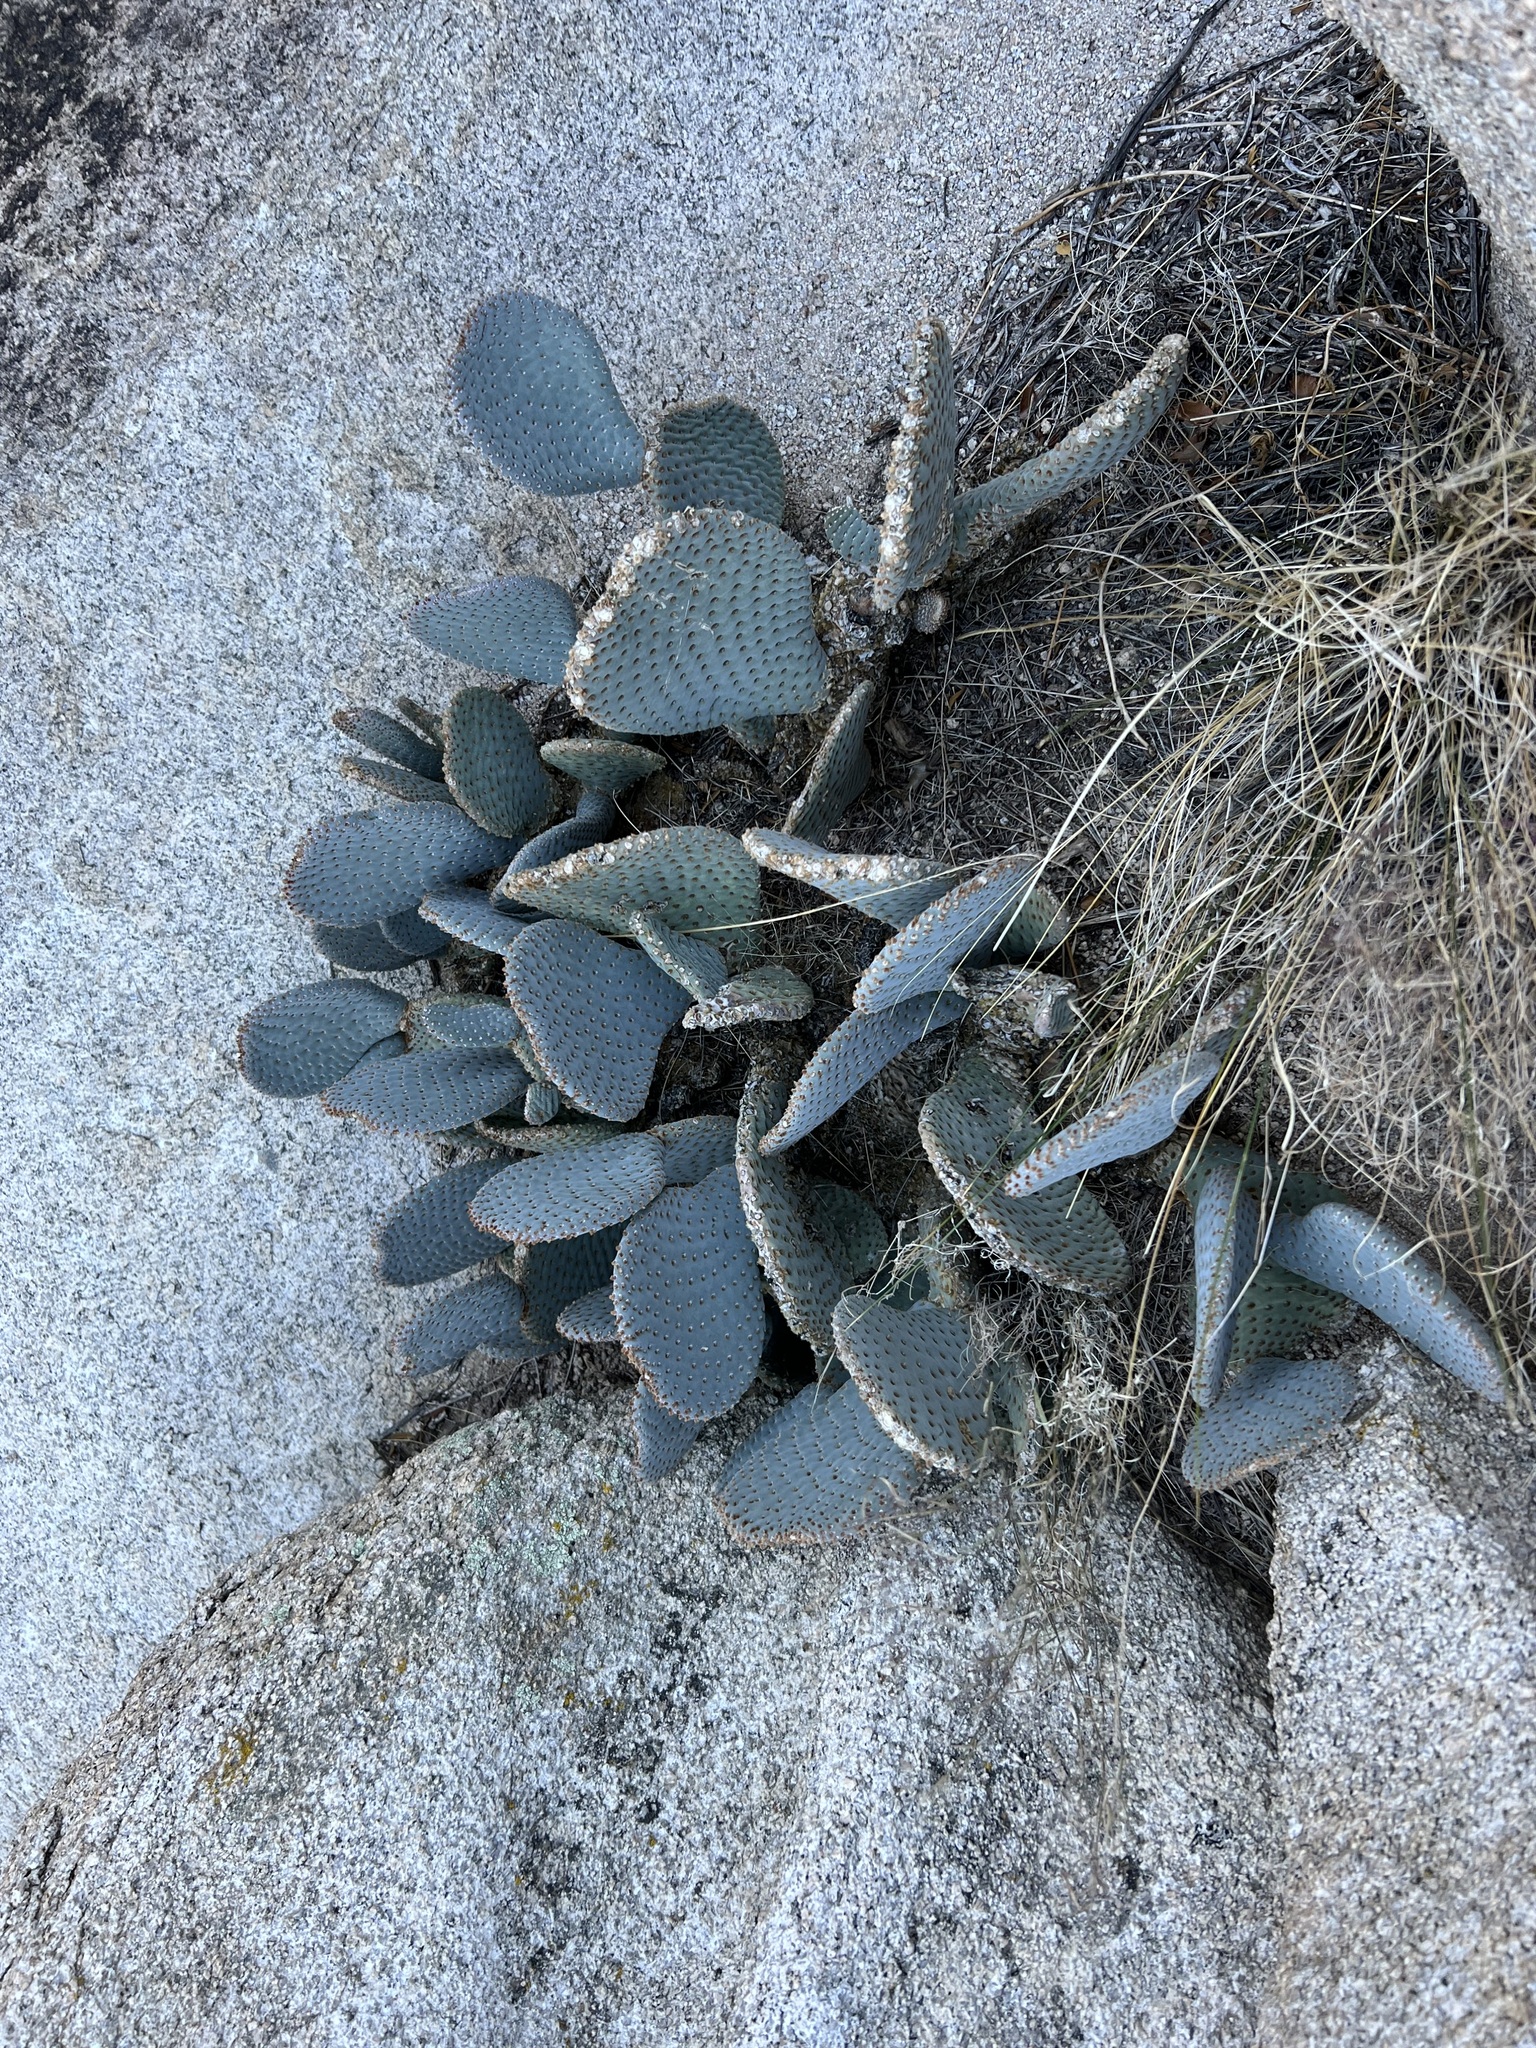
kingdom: Plantae
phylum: Tracheophyta
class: Magnoliopsida
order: Caryophyllales
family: Cactaceae
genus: Opuntia
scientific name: Opuntia basilaris
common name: Beavertail prickly-pear
